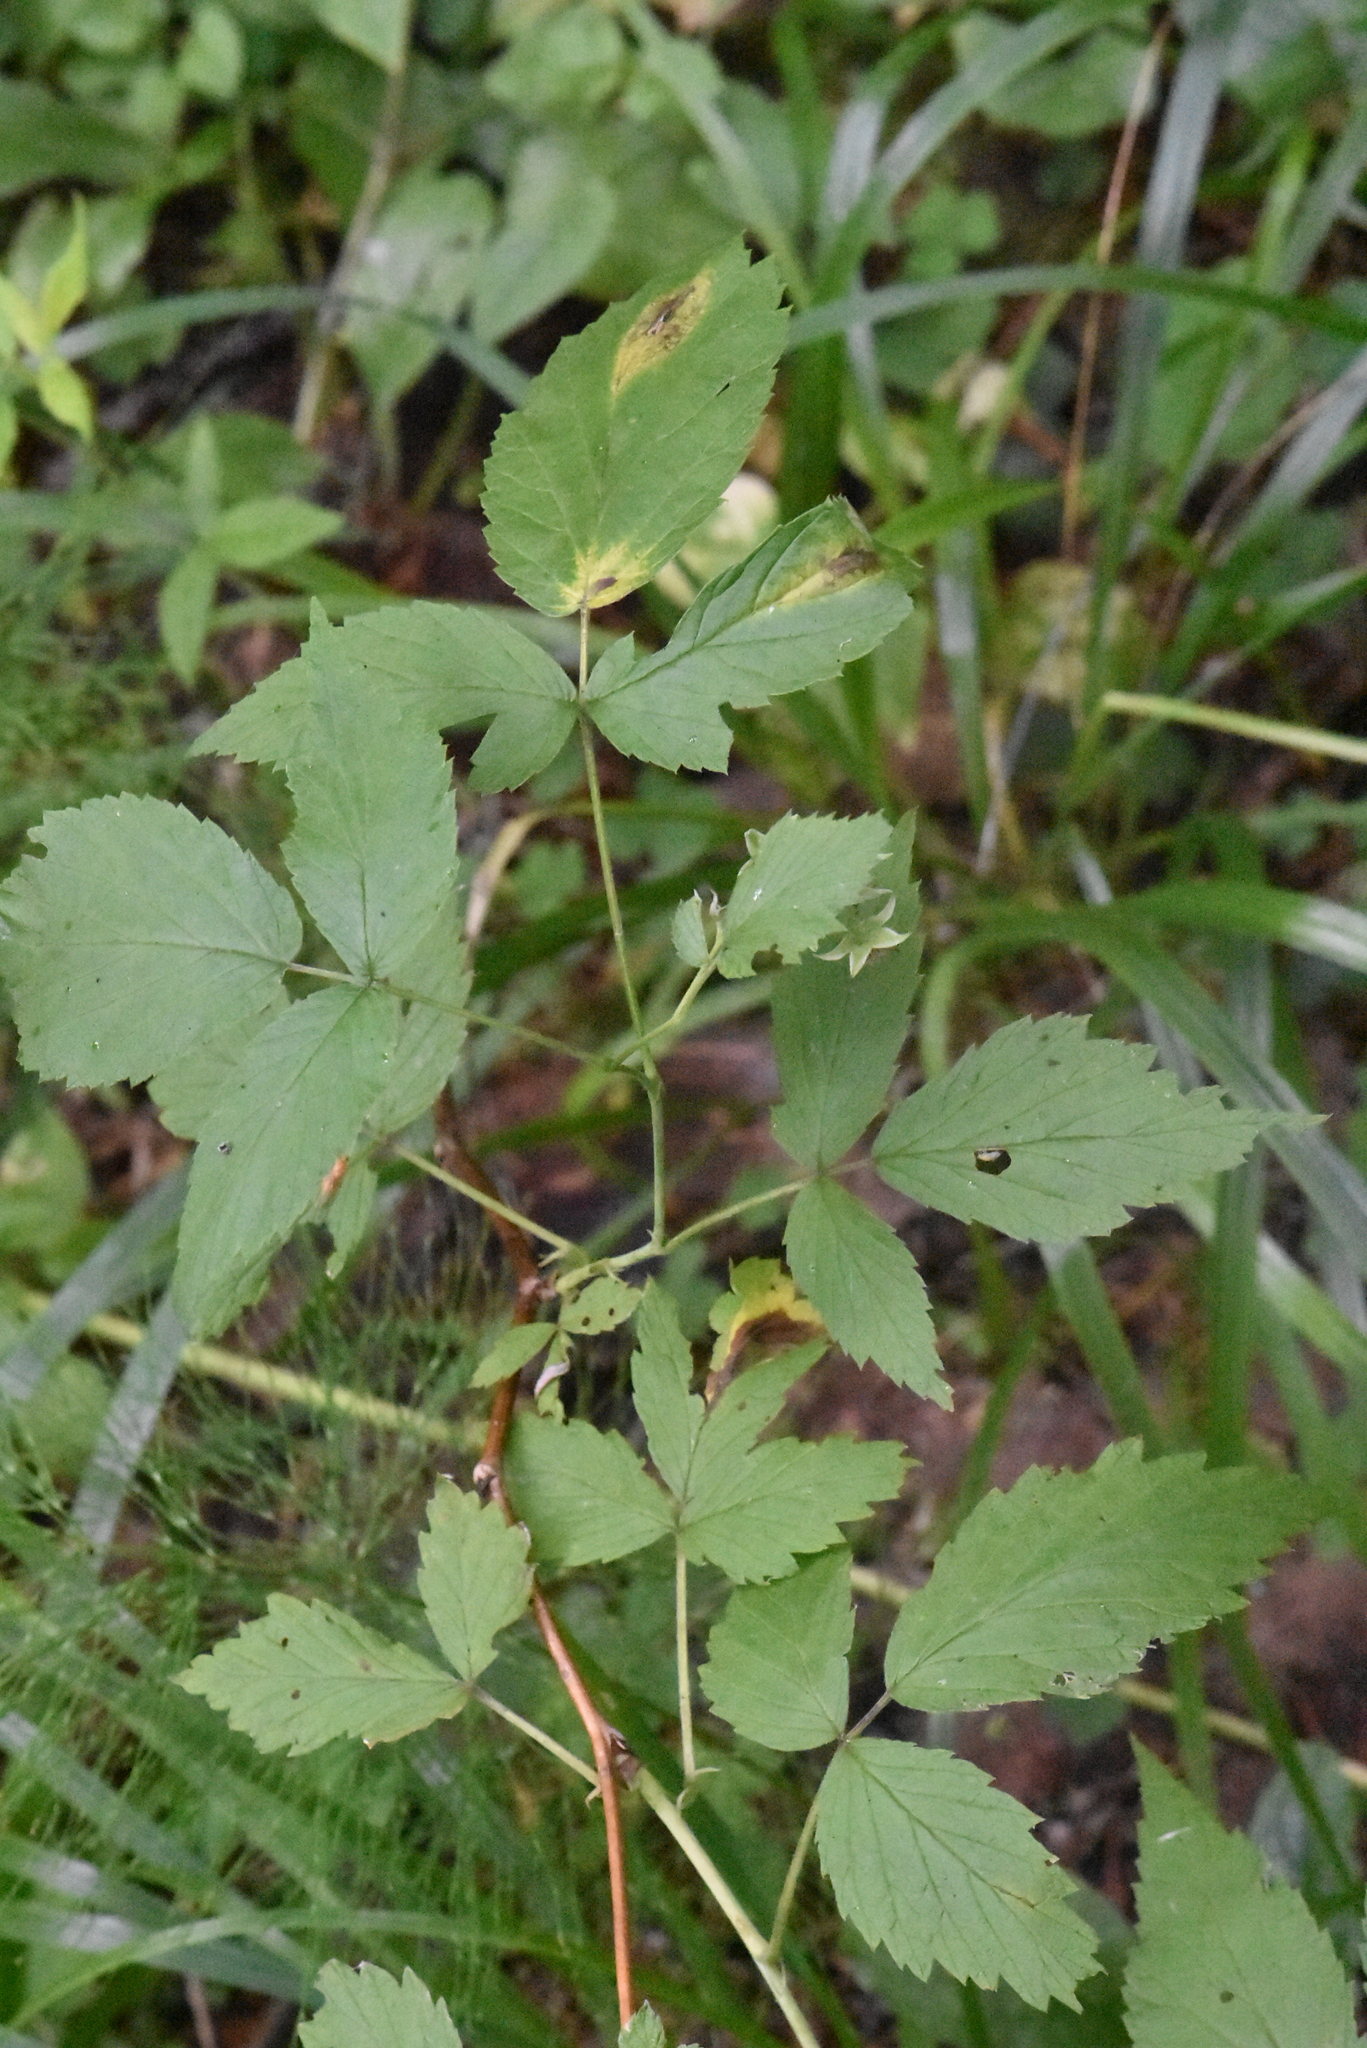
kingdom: Plantae
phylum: Tracheophyta
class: Magnoliopsida
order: Rosales
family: Rosaceae
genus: Rubus
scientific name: Rubus idaeus
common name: Raspberry
